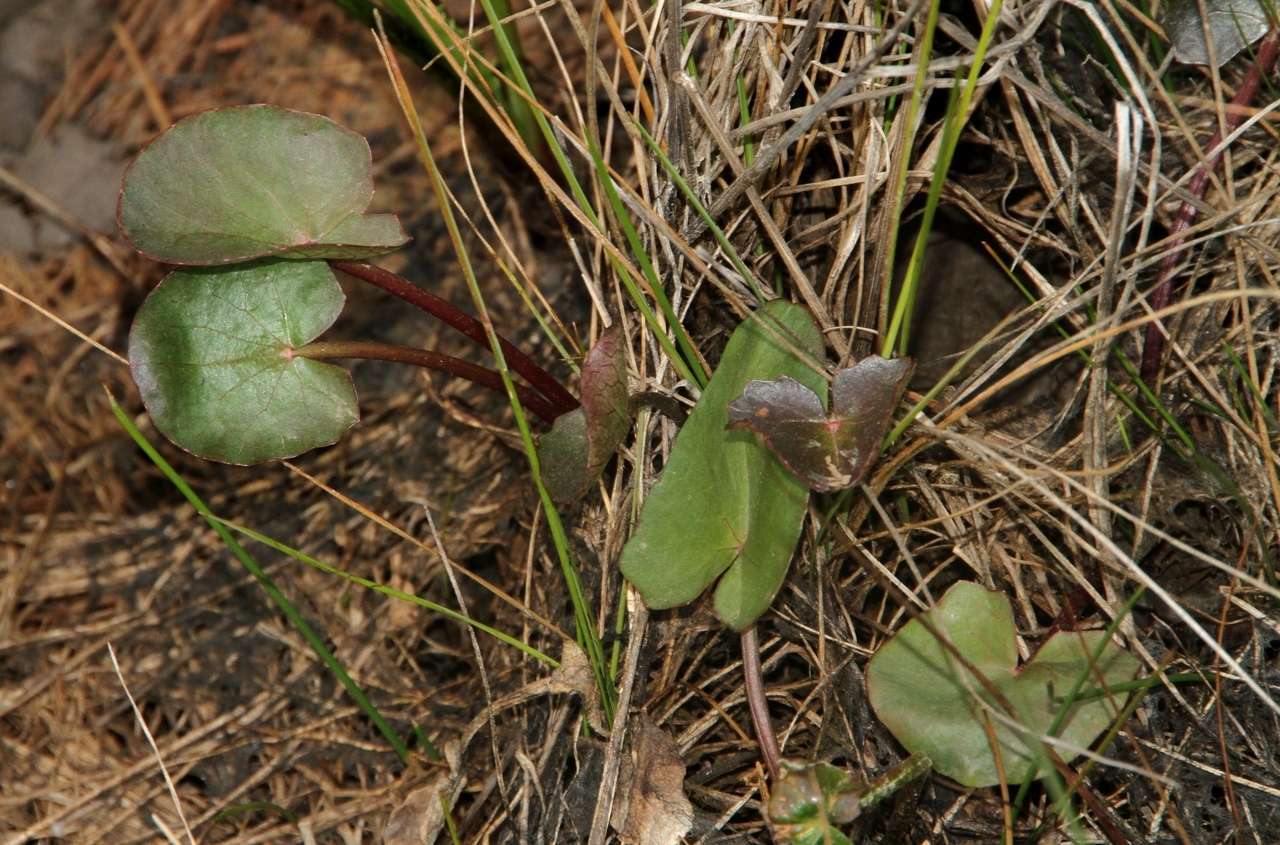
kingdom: Plantae
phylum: Tracheophyta
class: Magnoliopsida
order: Apiales
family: Apiaceae
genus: Centella
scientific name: Centella cordifolia
